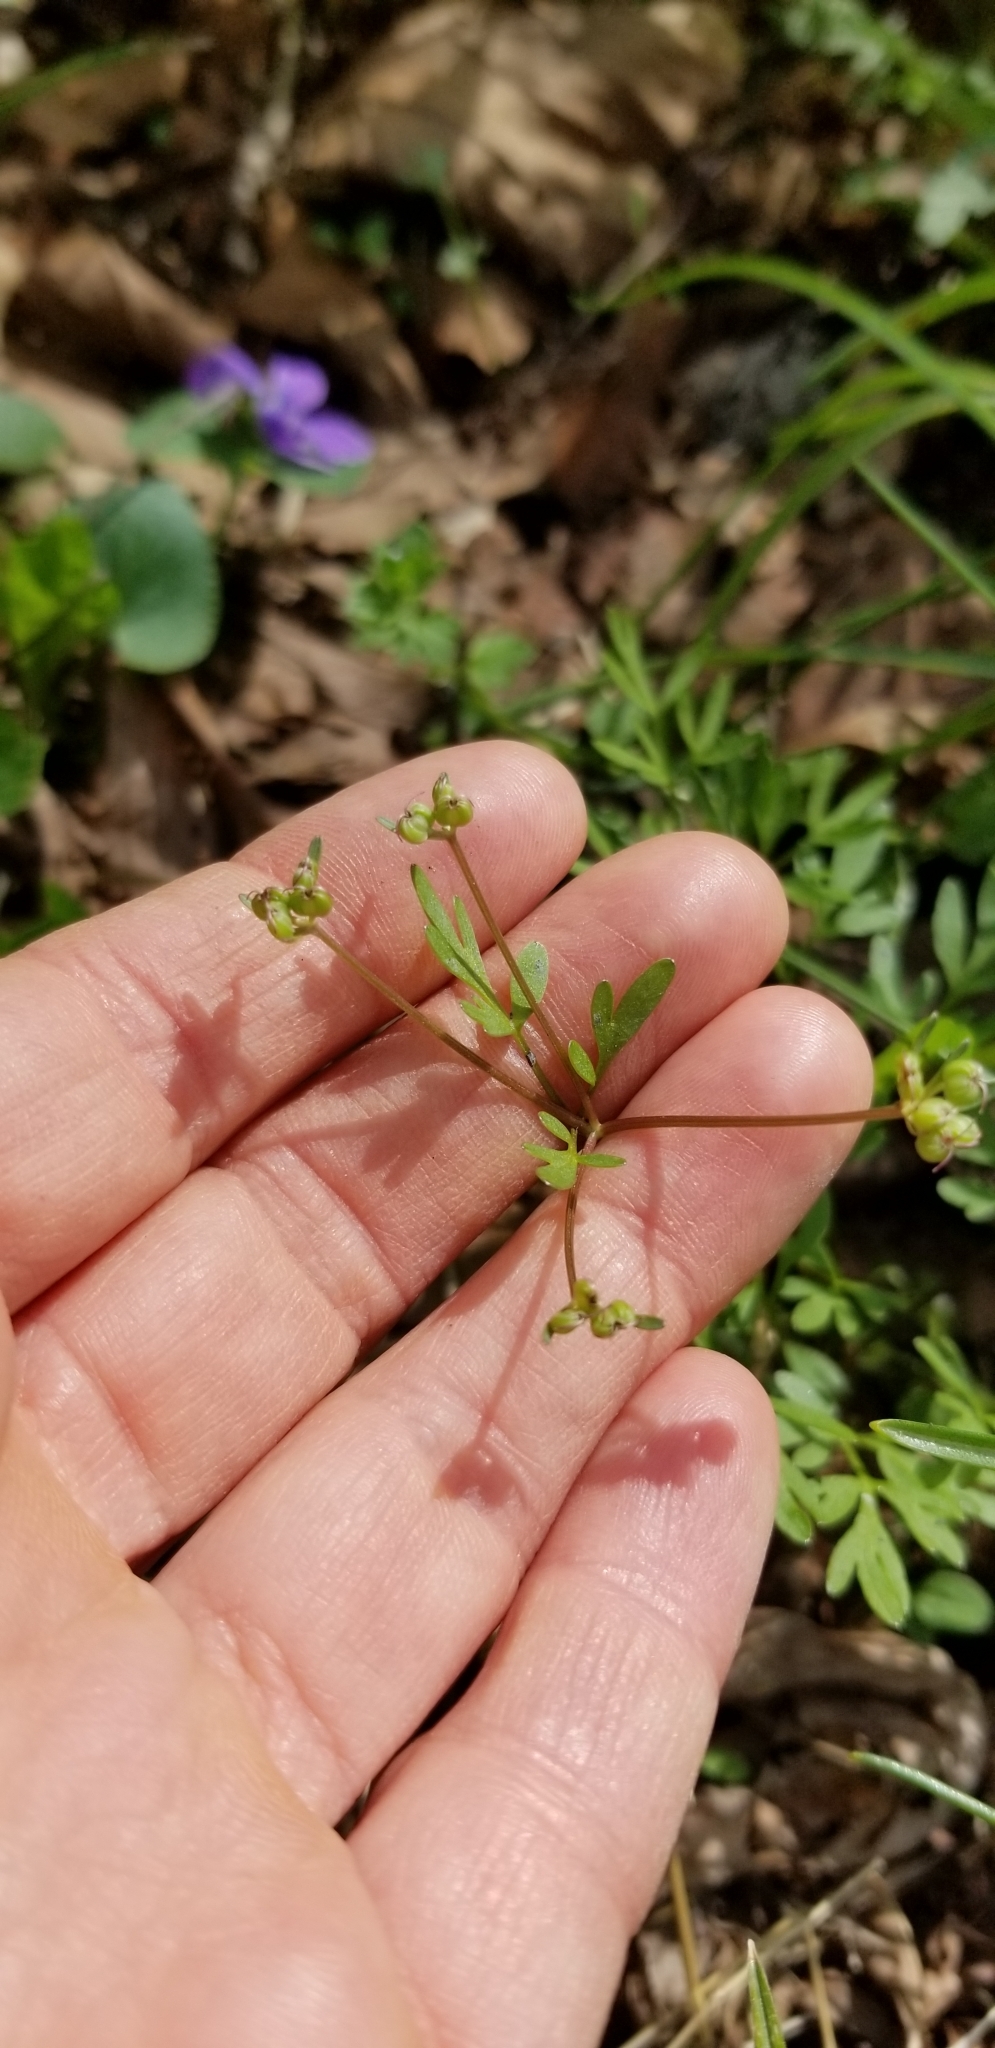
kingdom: Plantae
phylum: Tracheophyta
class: Magnoliopsida
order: Apiales
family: Apiaceae
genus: Erigenia
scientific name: Erigenia bulbosa
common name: Pepper-and-salt
